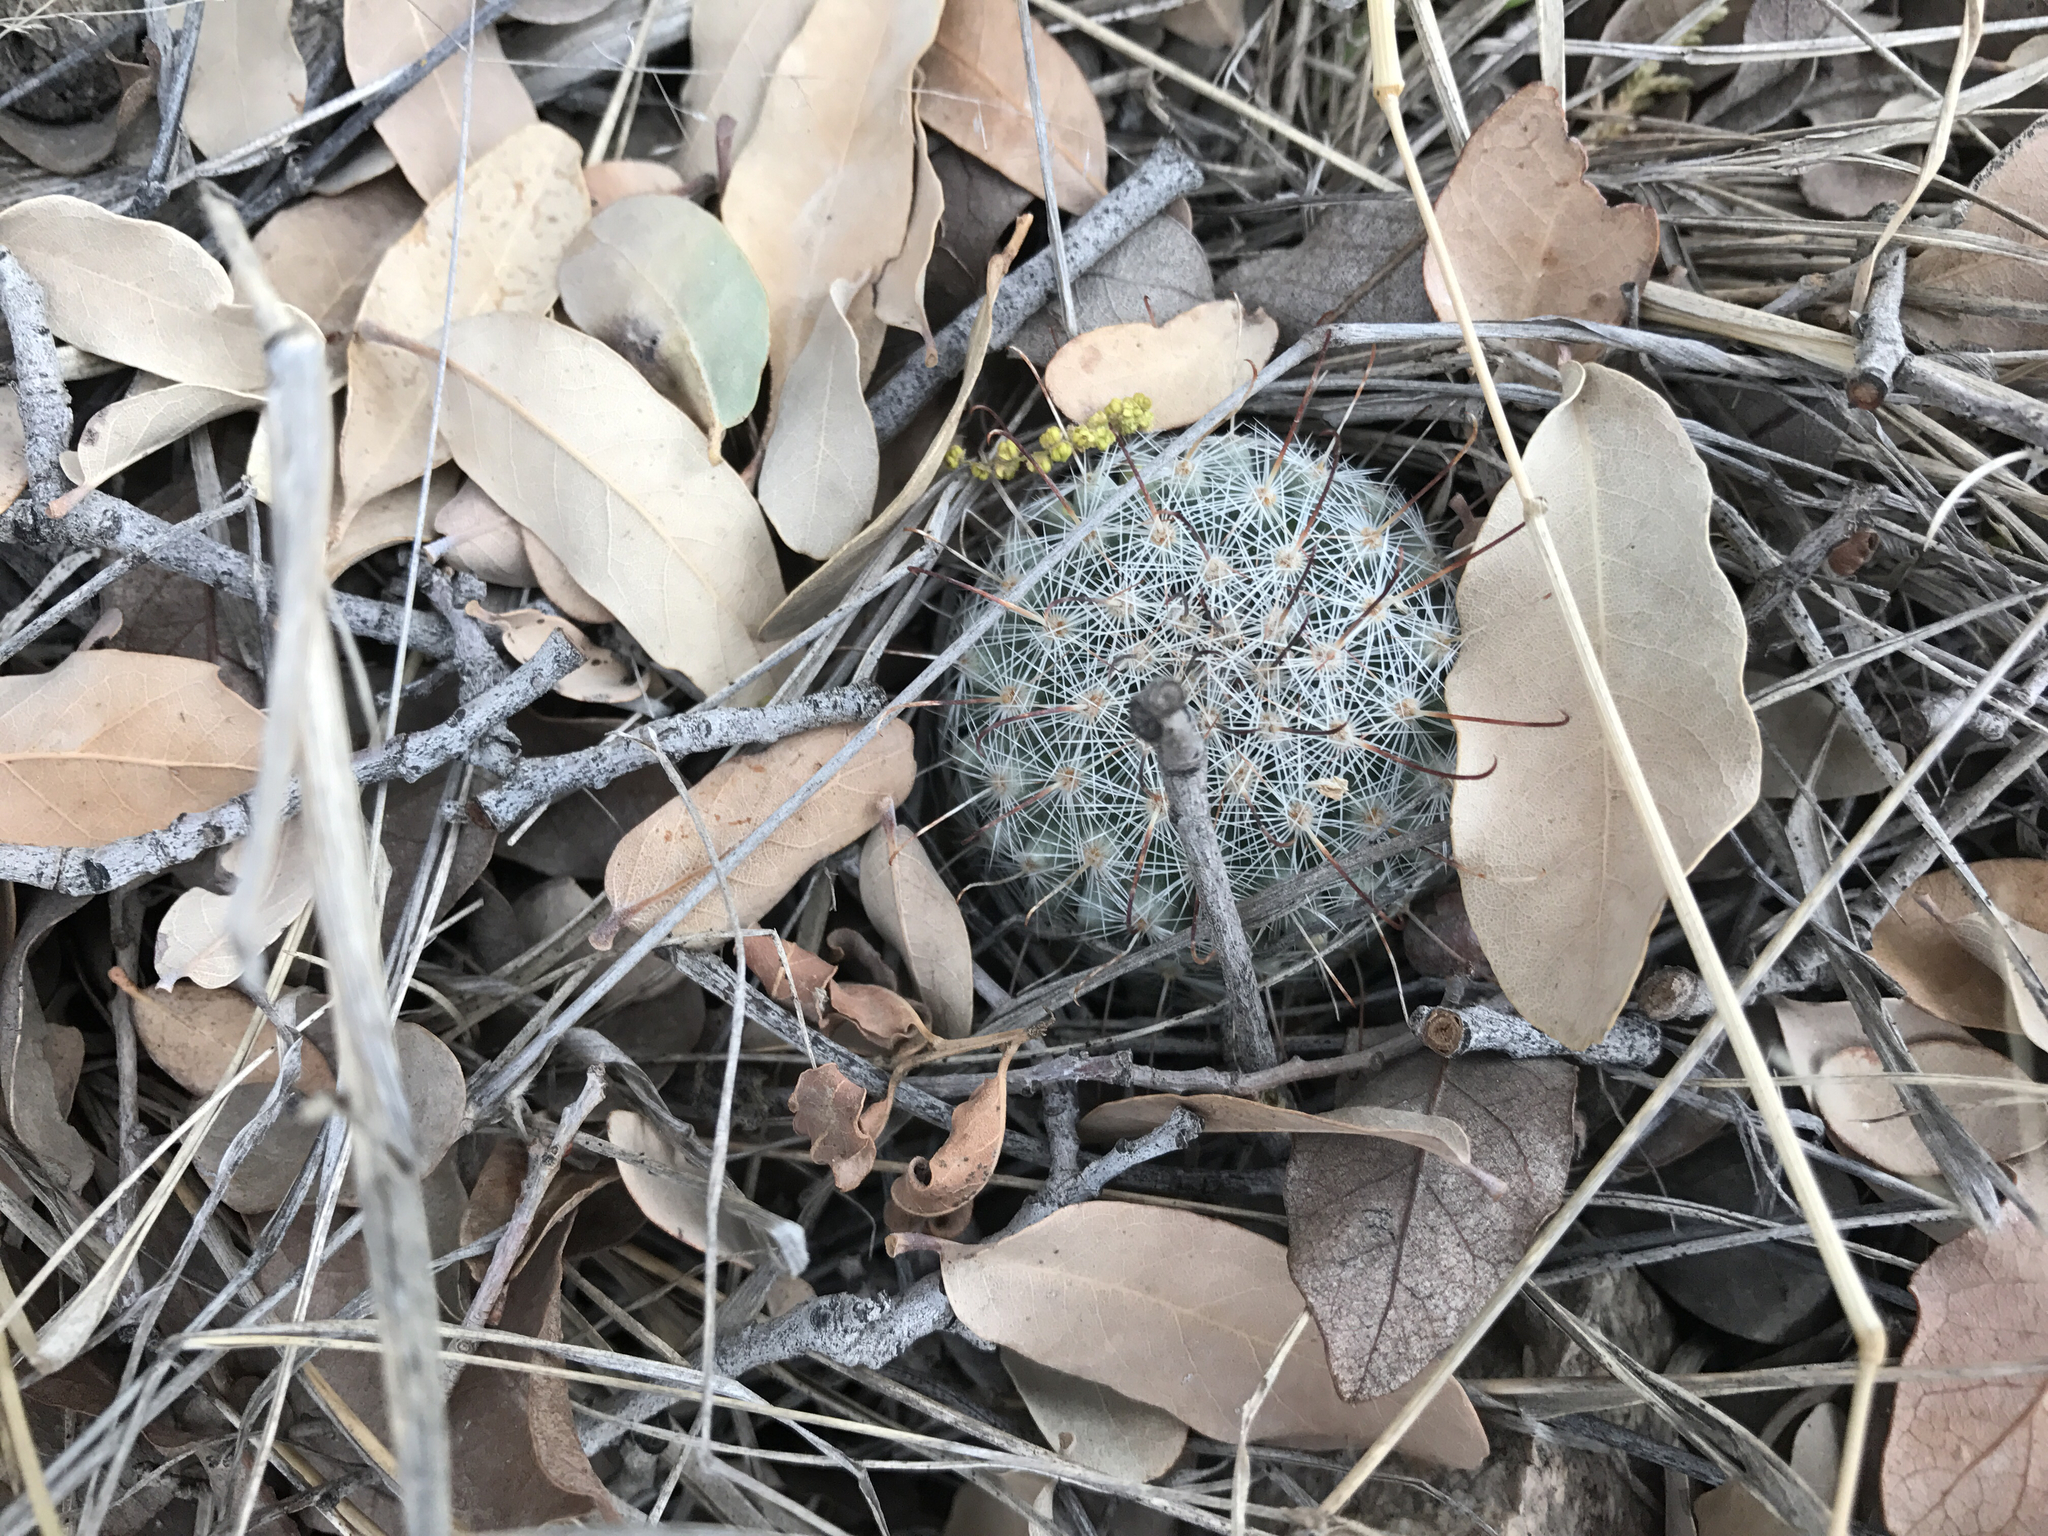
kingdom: Plantae
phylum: Tracheophyta
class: Magnoliopsida
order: Caryophyllales
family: Cactaceae
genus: Cochemiea
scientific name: Cochemiea grahamii
